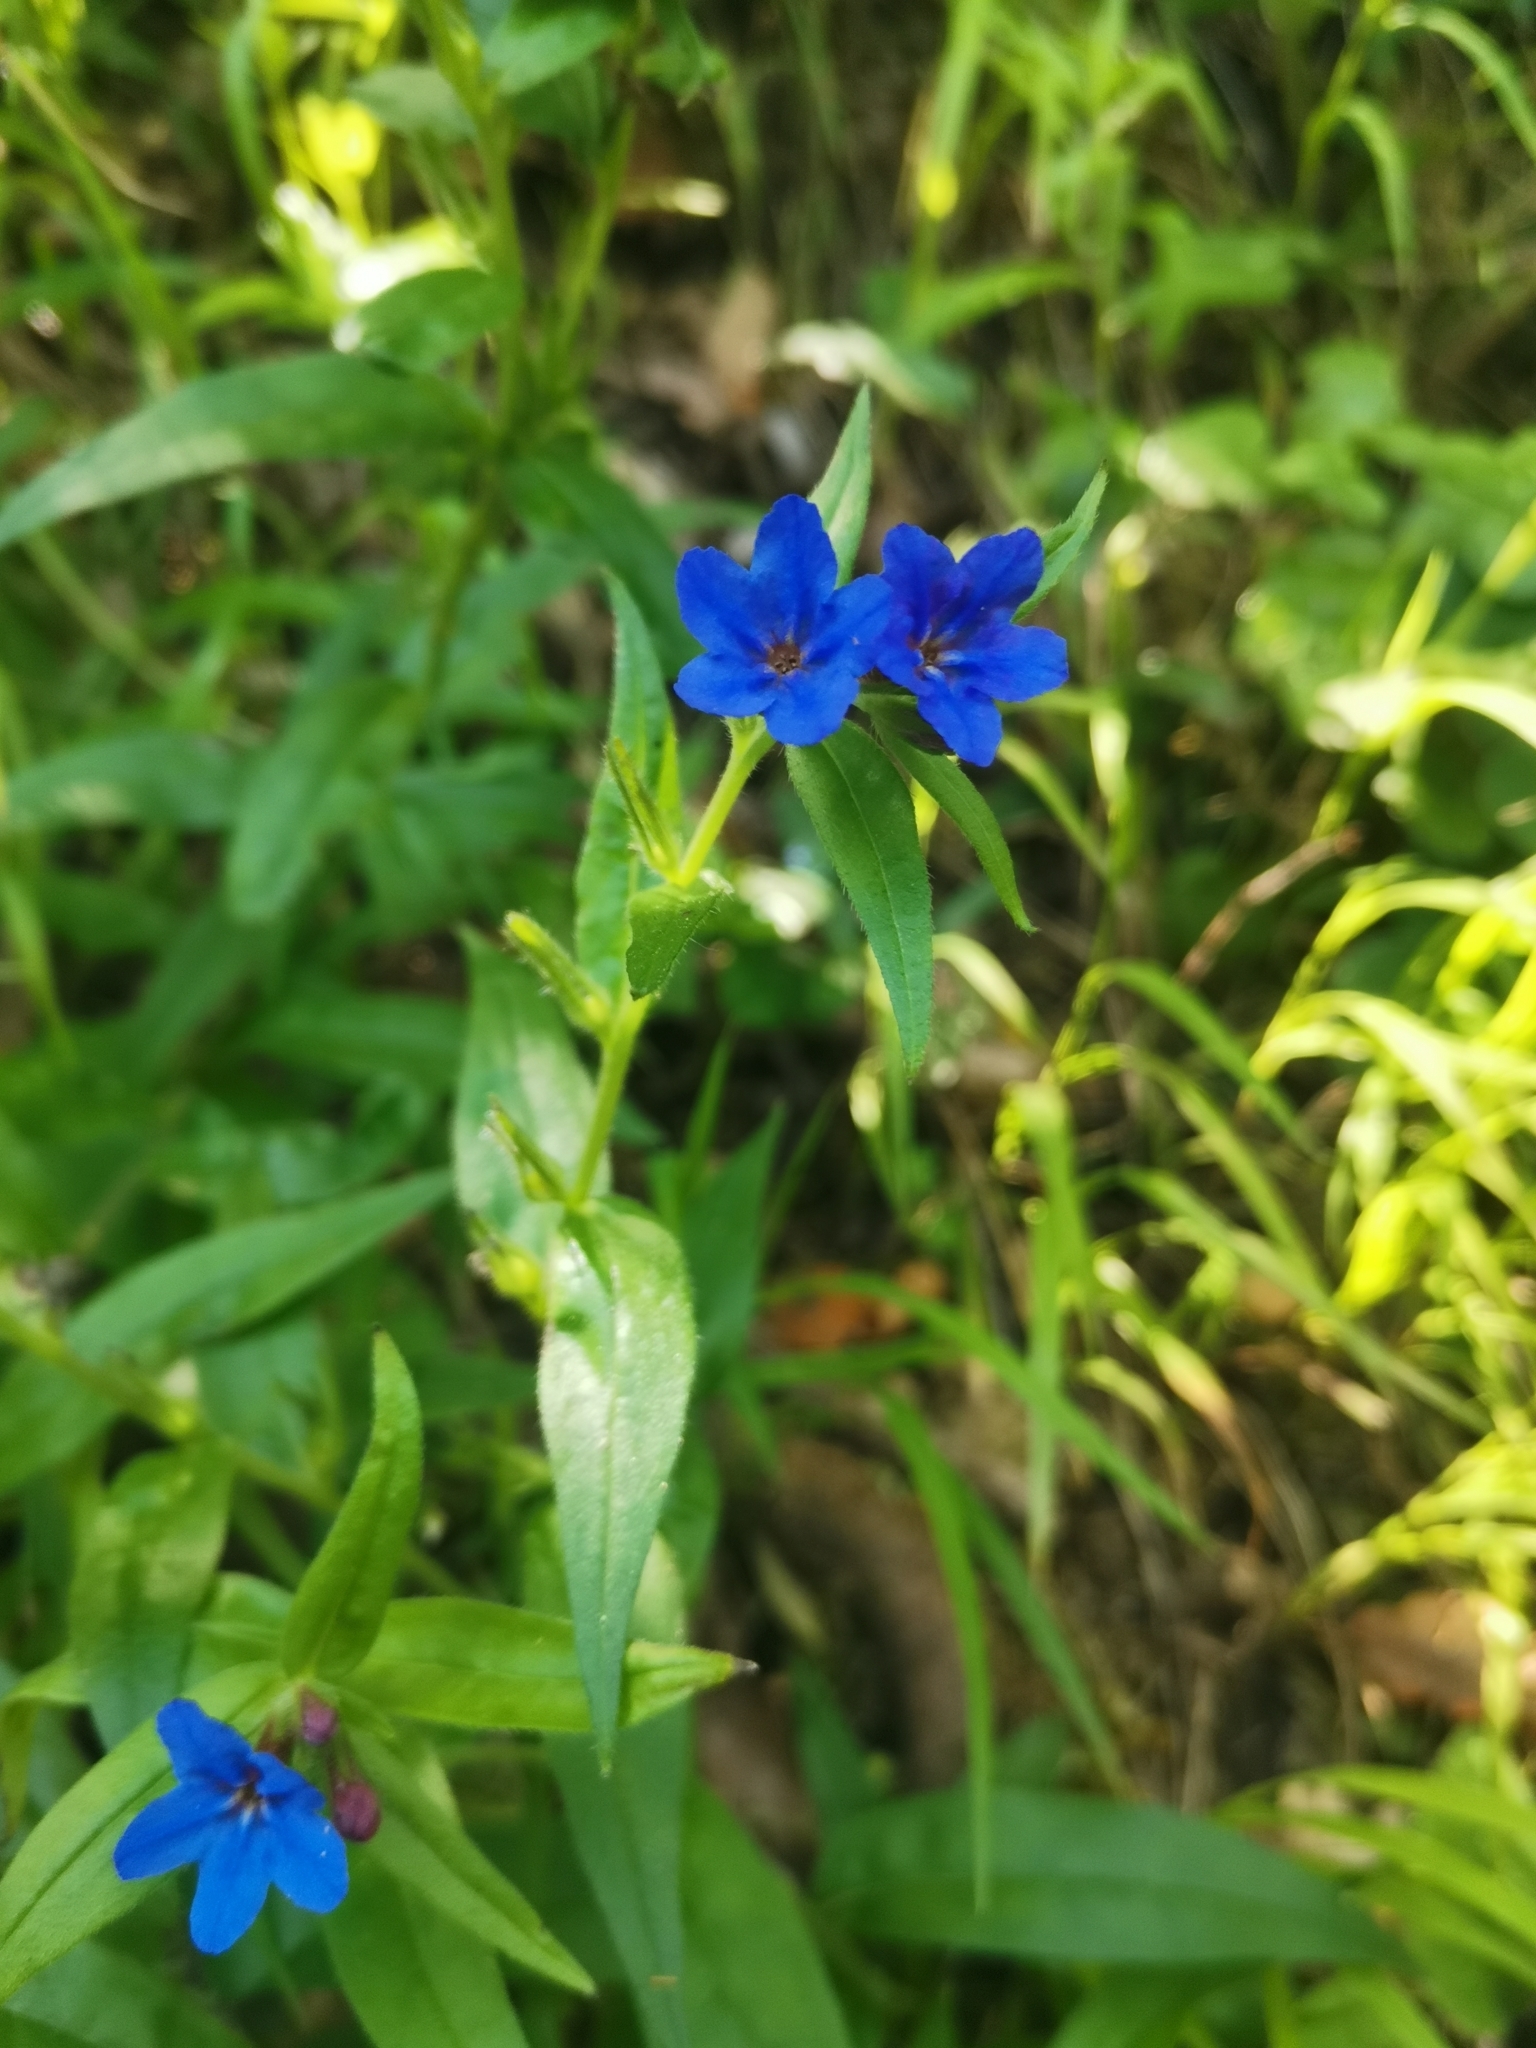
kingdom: Plantae
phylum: Tracheophyta
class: Magnoliopsida
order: Boraginales
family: Boraginaceae
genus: Aegonychon
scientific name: Aegonychon purpurocaeruleum
